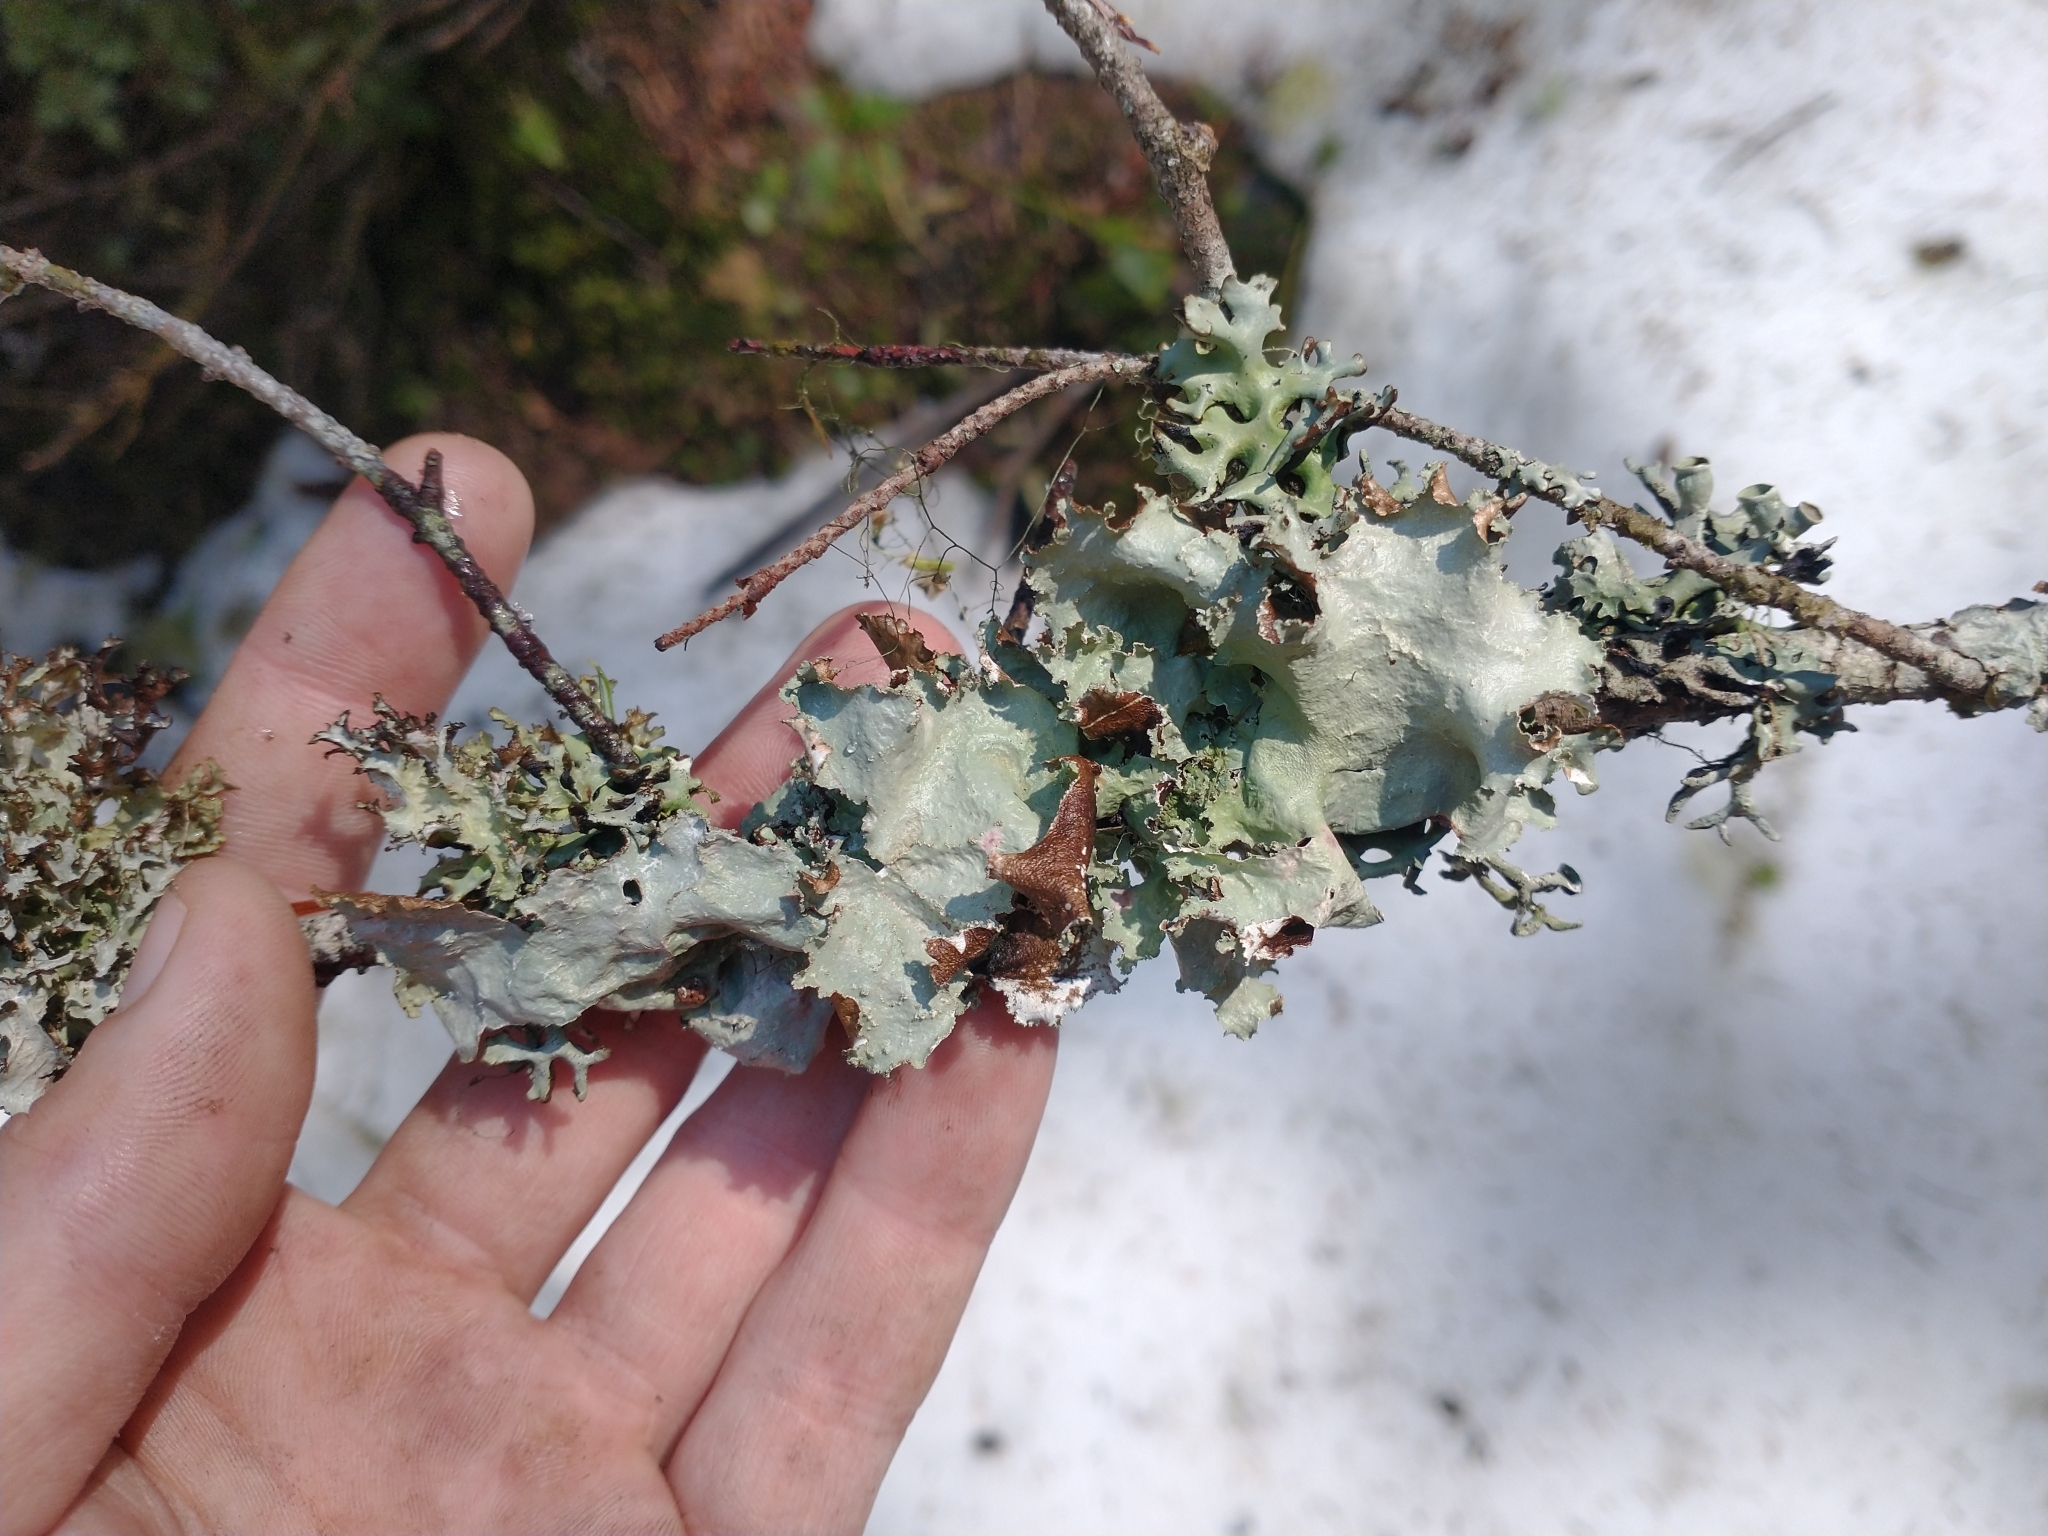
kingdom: Fungi
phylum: Ascomycota
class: Lecanoromycetes
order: Lecanorales
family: Parmeliaceae
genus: Platismatia
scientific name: Platismatia glauca
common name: Varied rag lichen
